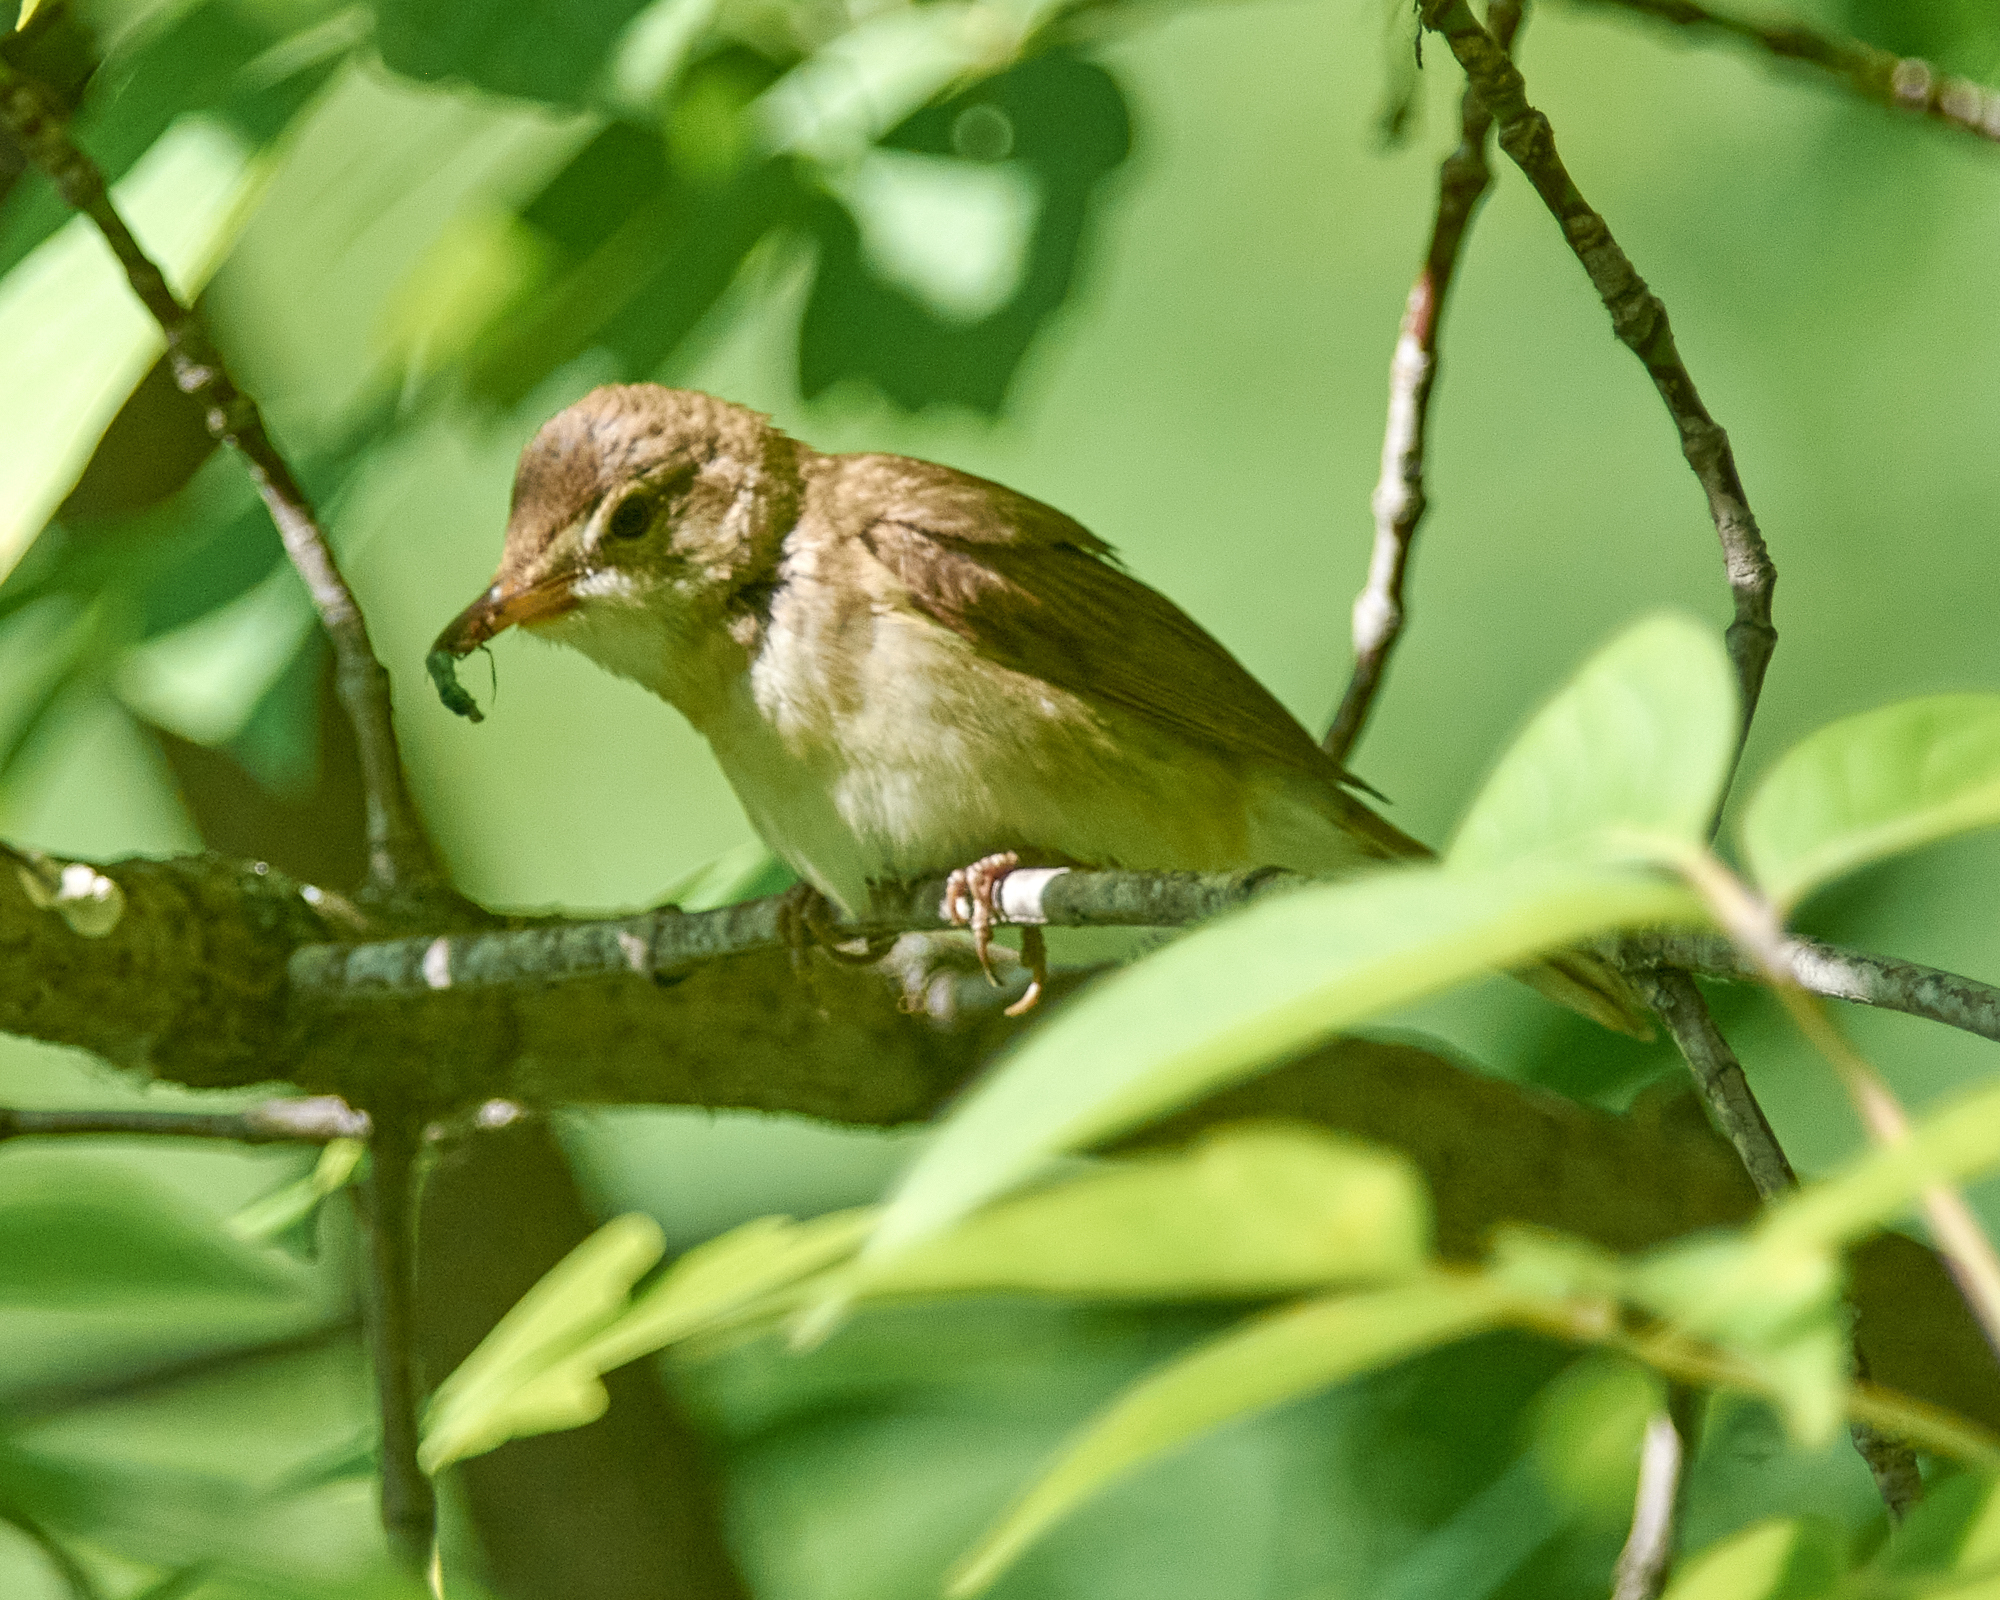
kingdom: Animalia
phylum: Chordata
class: Aves
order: Passeriformes
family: Acrocephalidae
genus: Acrocephalus
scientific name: Acrocephalus dumetorum
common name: Blyth's reed warbler
